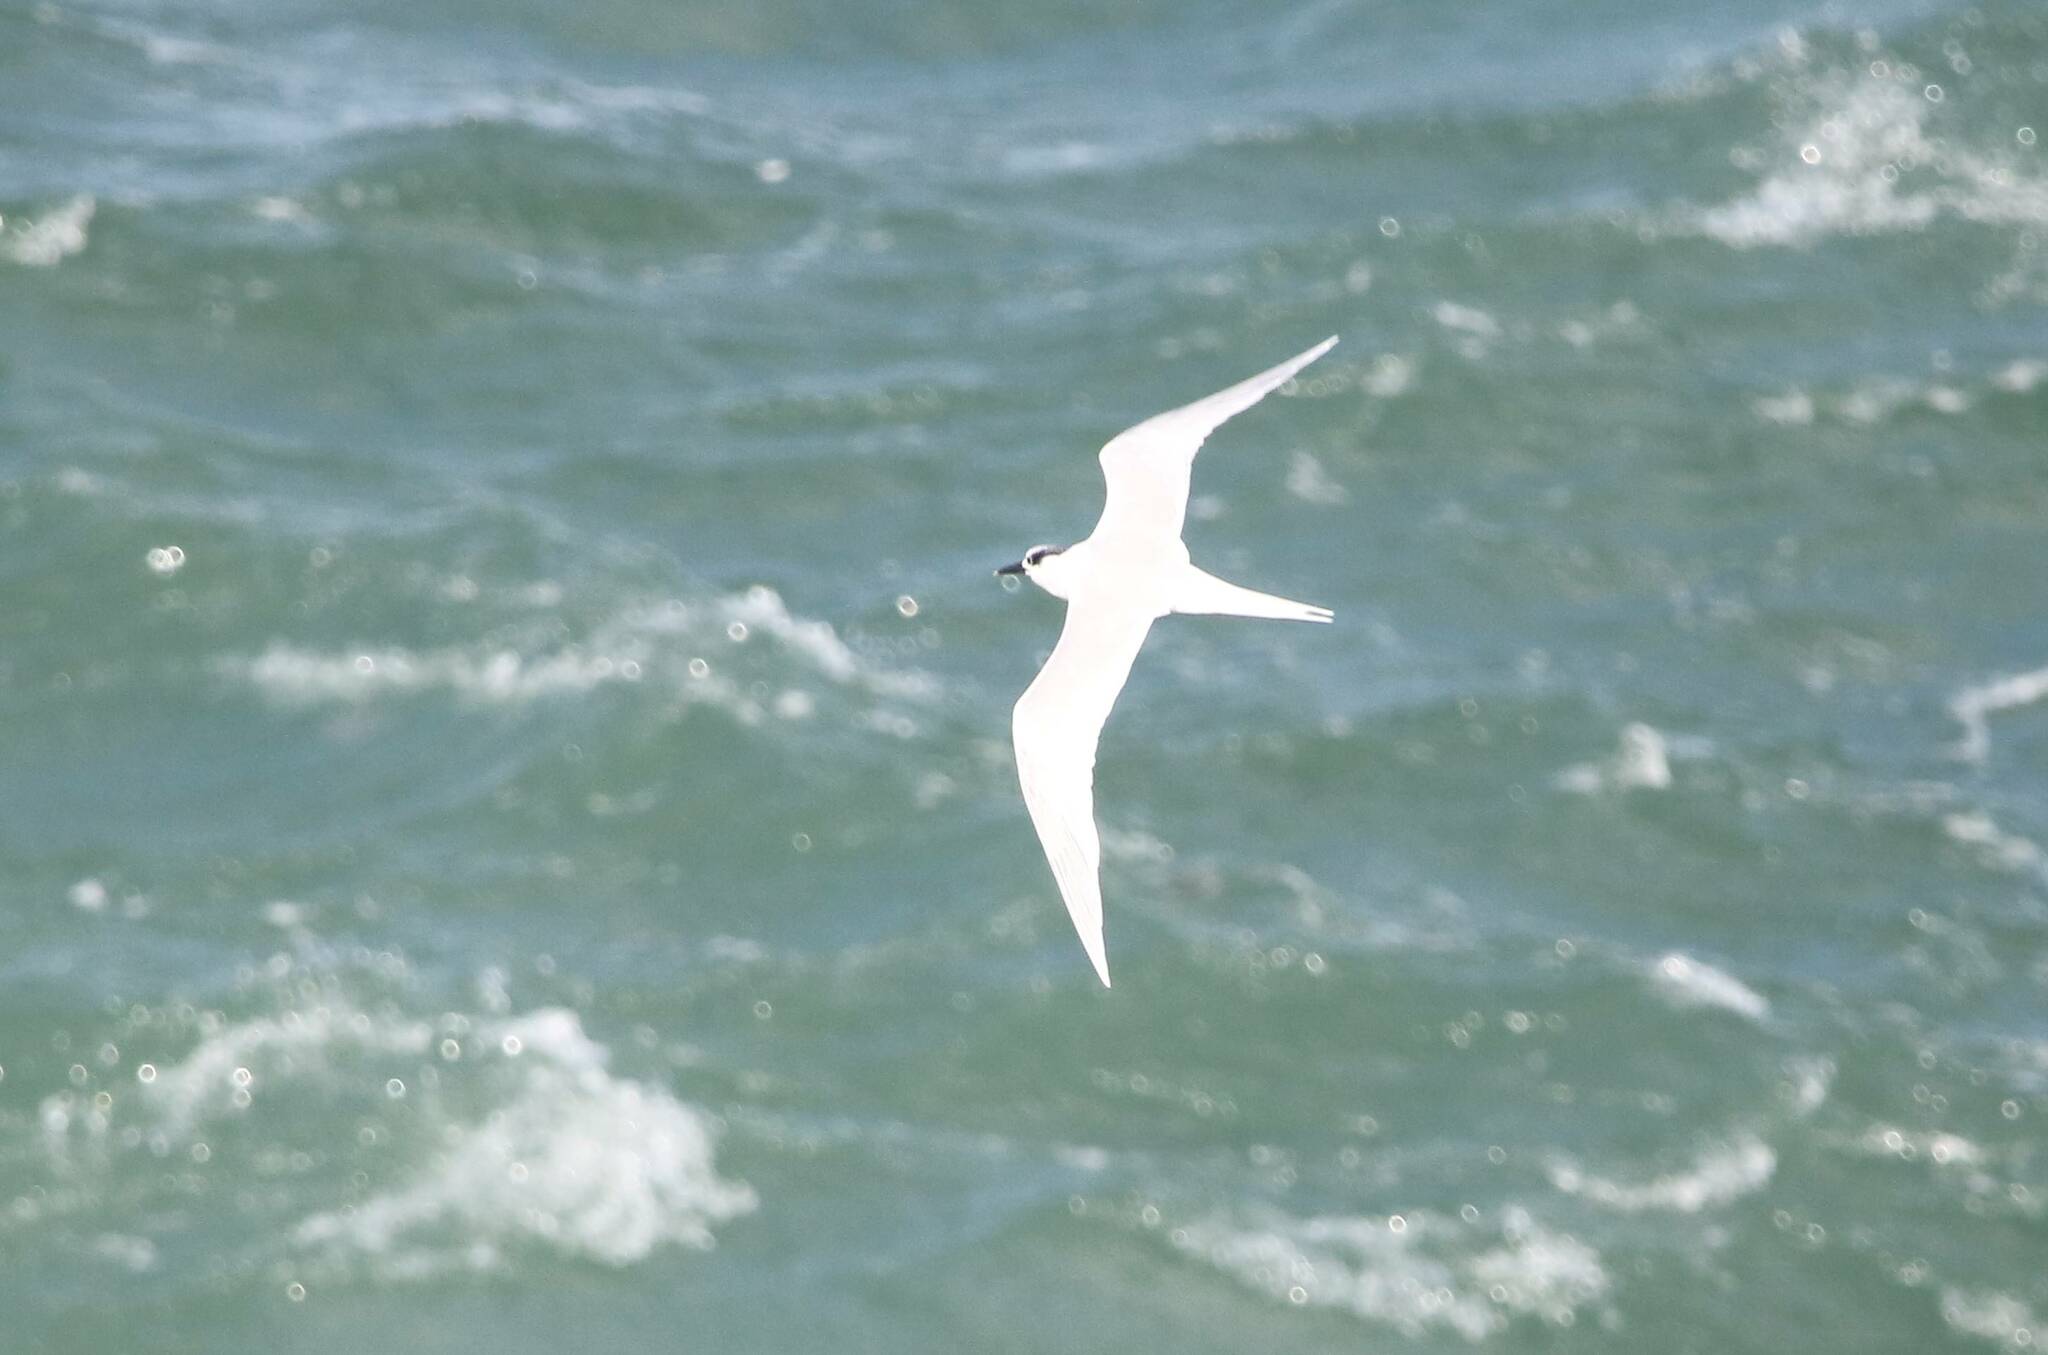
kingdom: Animalia
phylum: Chordata
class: Aves
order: Charadriiformes
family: Laridae
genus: Thalasseus
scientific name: Thalasseus sandvicensis
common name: Sandwich tern
